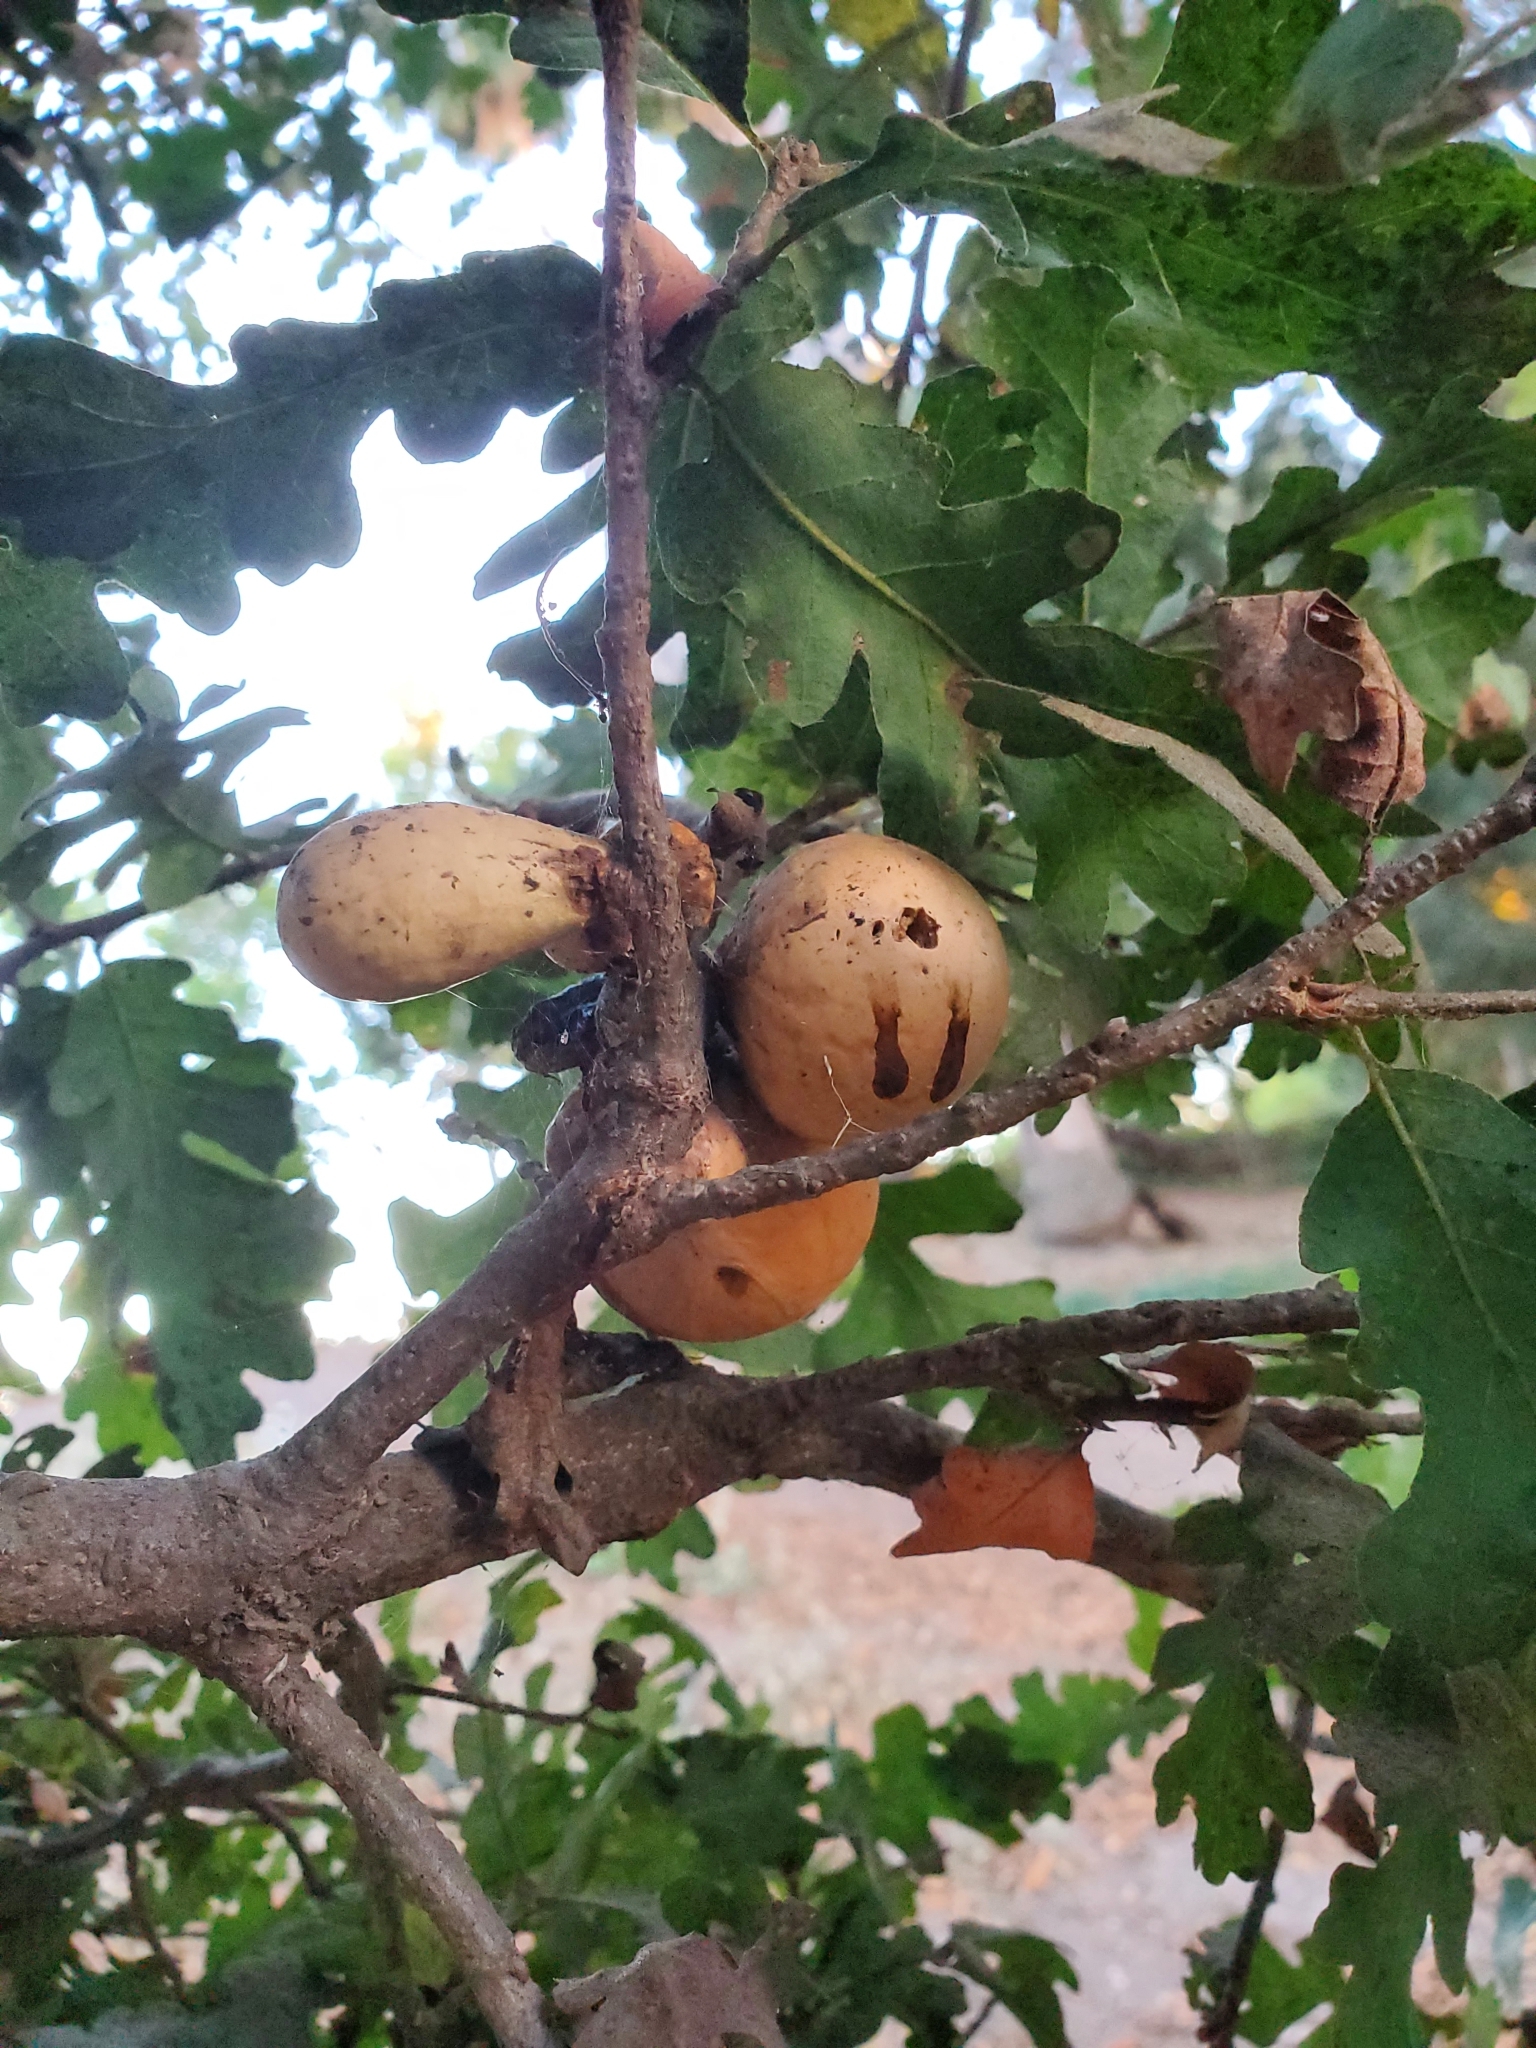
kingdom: Animalia
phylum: Arthropoda
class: Insecta
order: Hymenoptera
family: Cynipidae
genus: Andricus
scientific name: Andricus quercuscalifornicus
